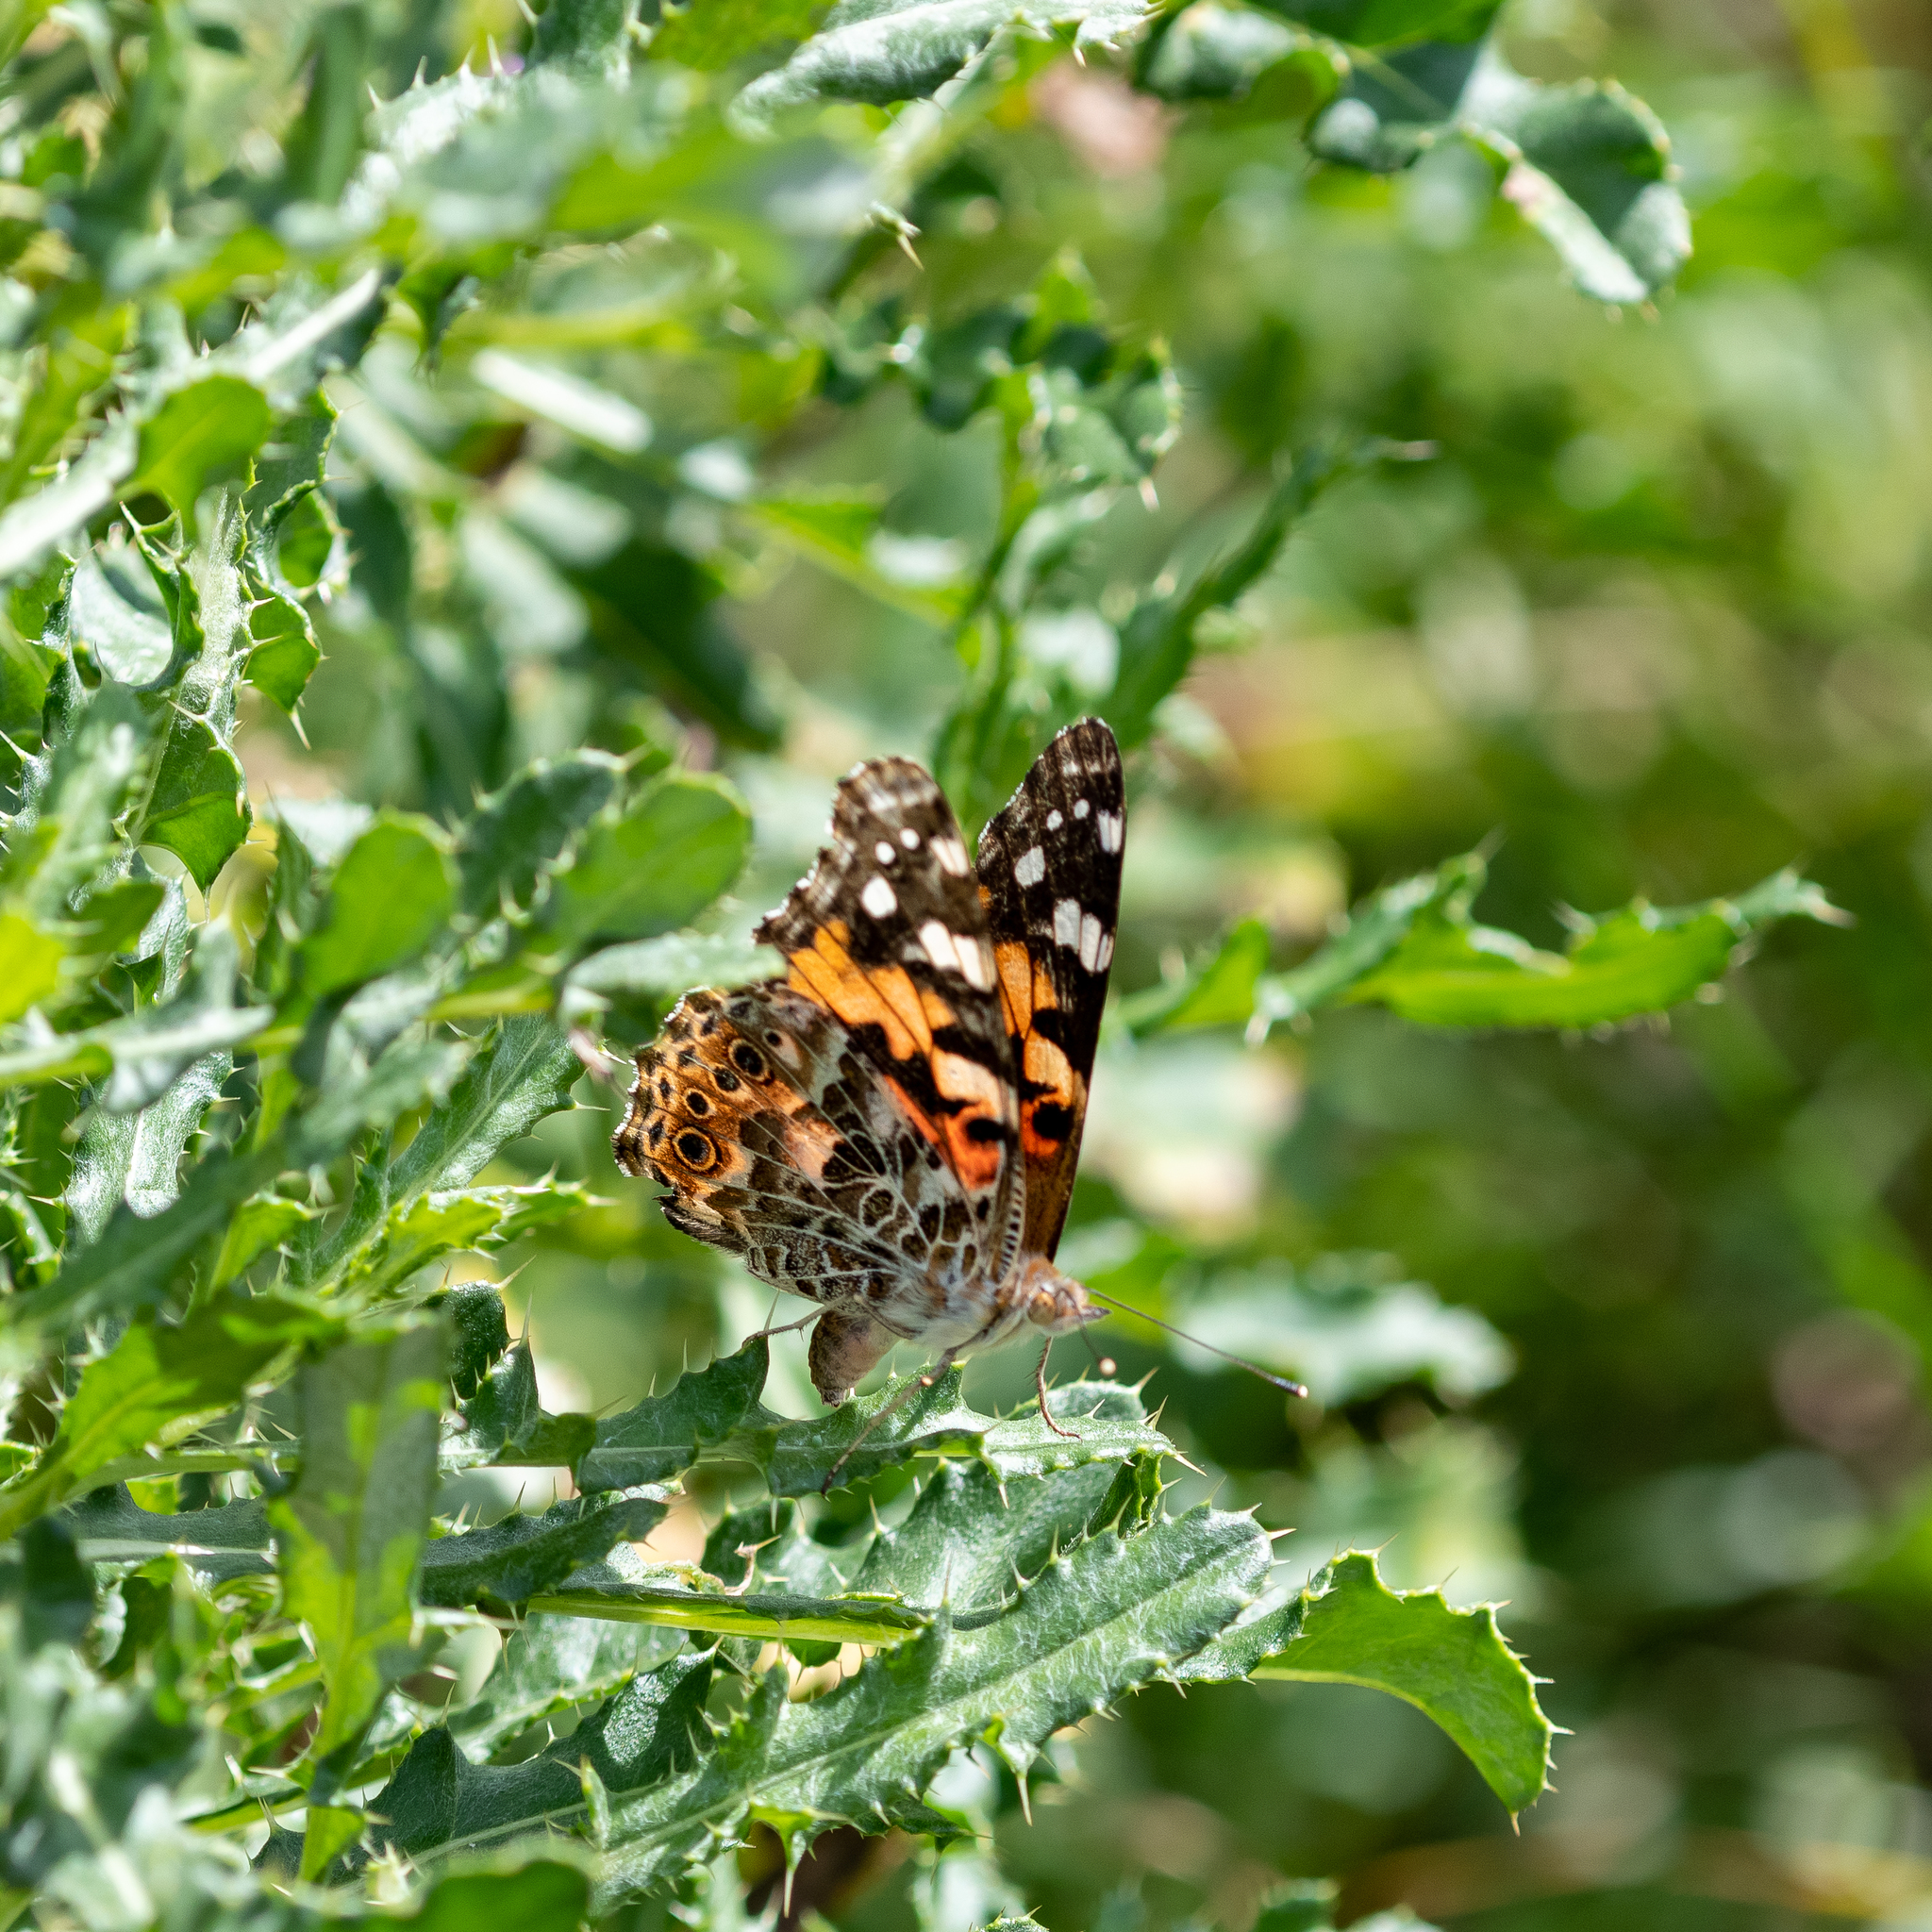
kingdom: Animalia
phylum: Arthropoda
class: Insecta
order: Lepidoptera
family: Nymphalidae
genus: Vanessa
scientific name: Vanessa cardui
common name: Painted lady
